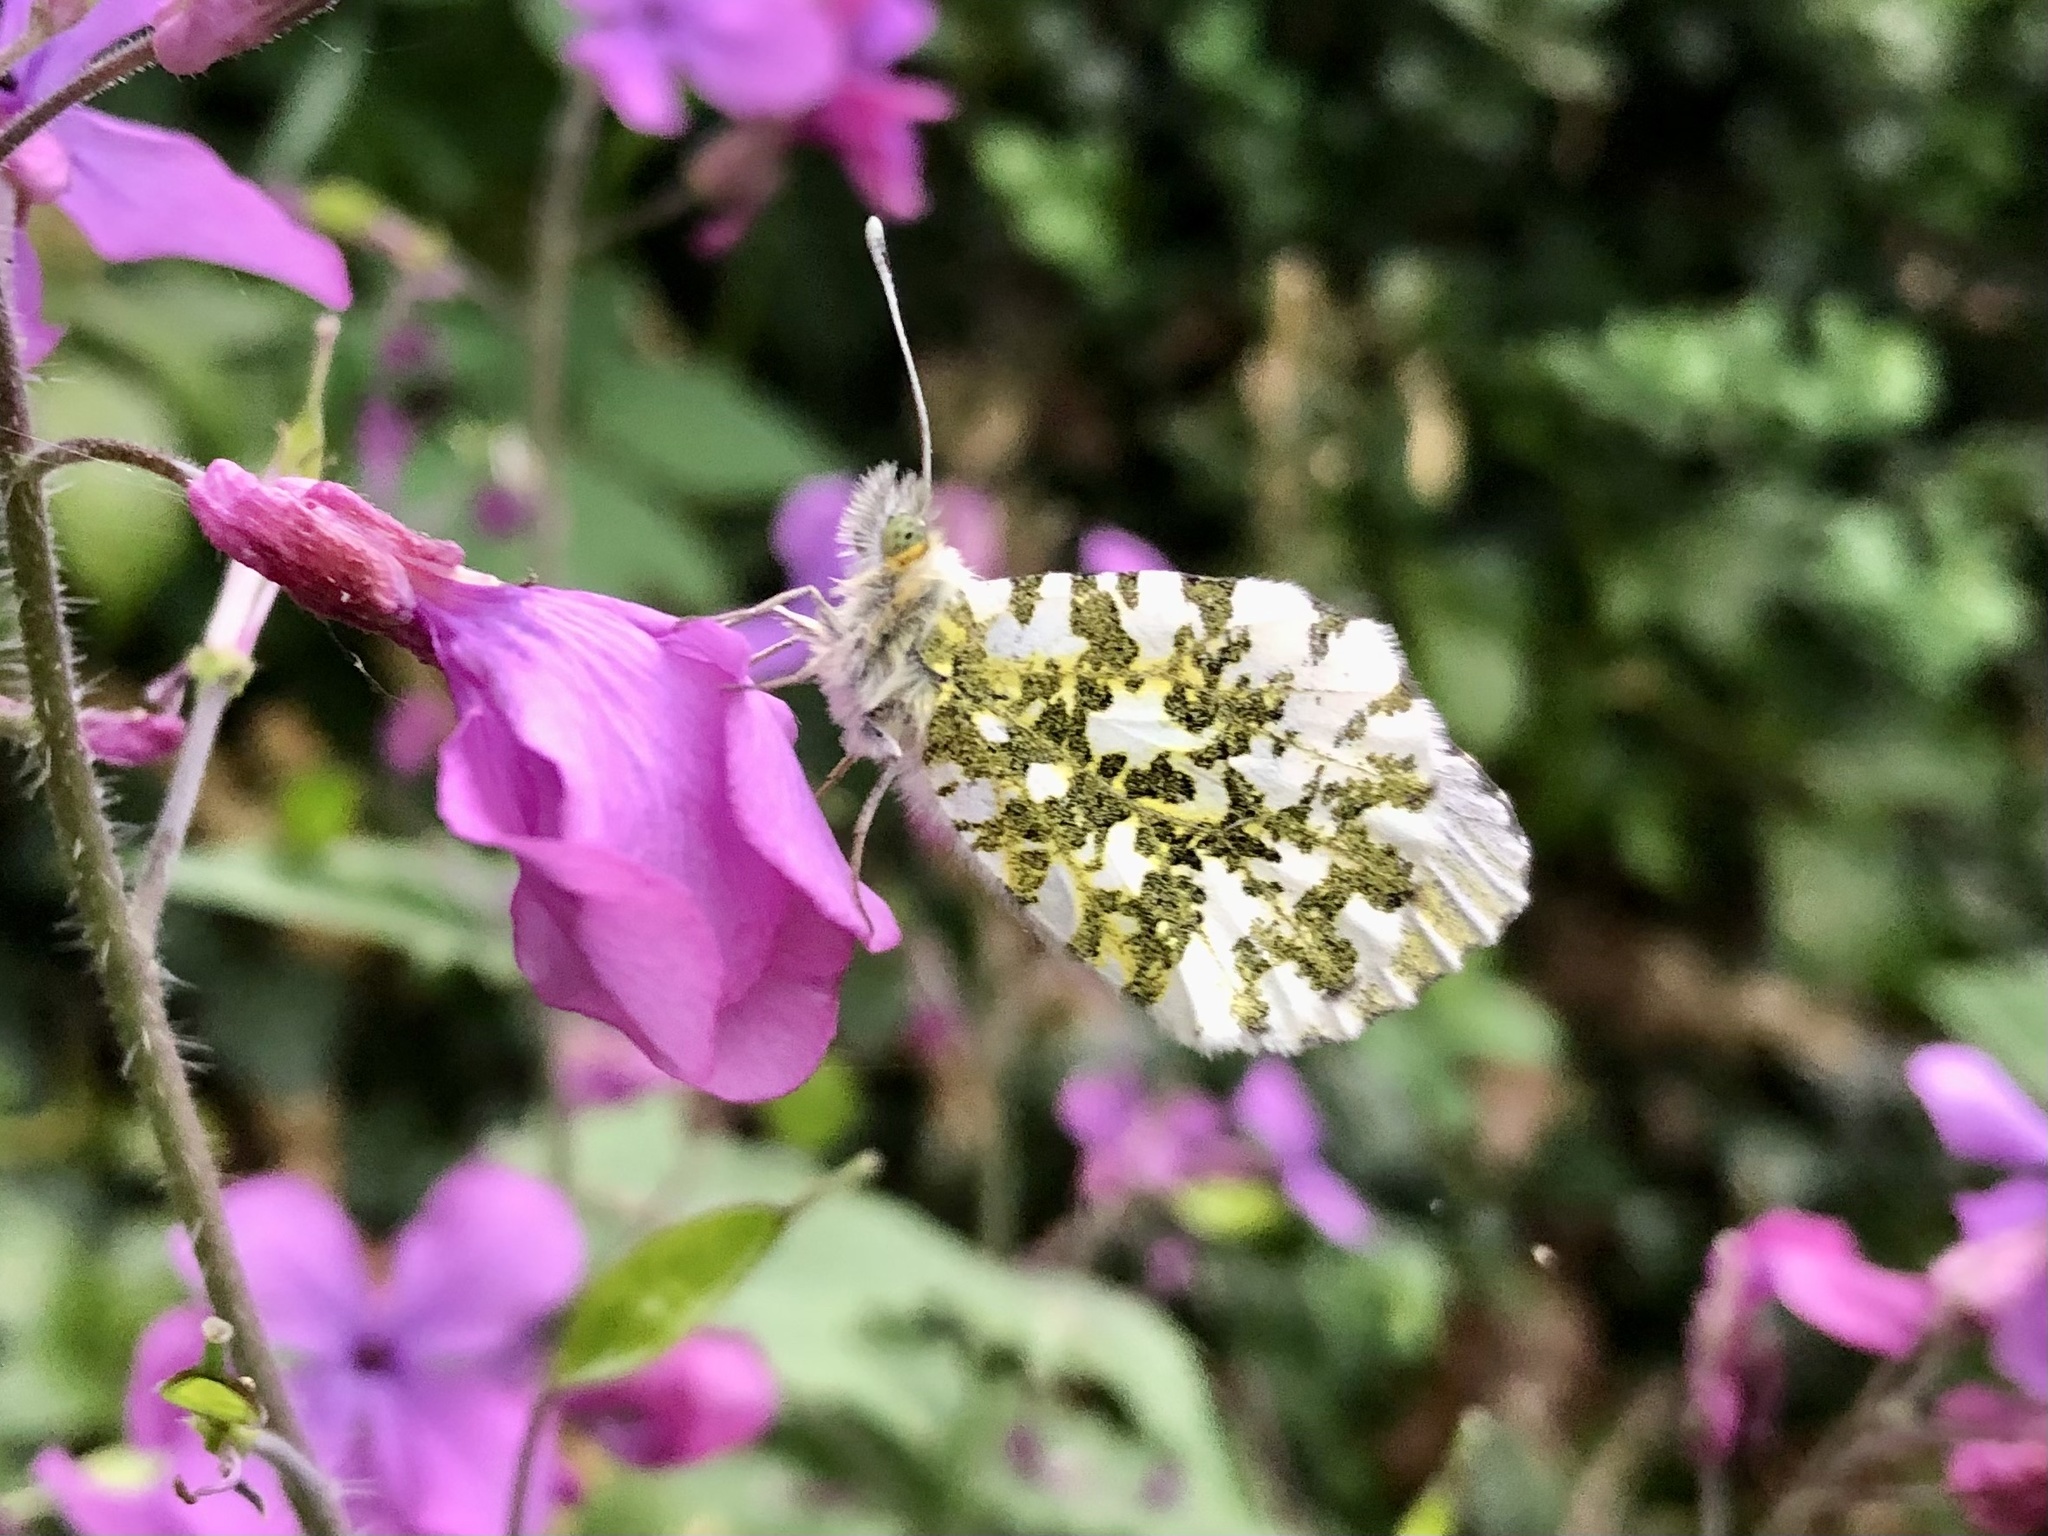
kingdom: Animalia
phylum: Arthropoda
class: Insecta
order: Lepidoptera
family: Pieridae
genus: Anthocharis
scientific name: Anthocharis cardamines
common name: Orange-tip
